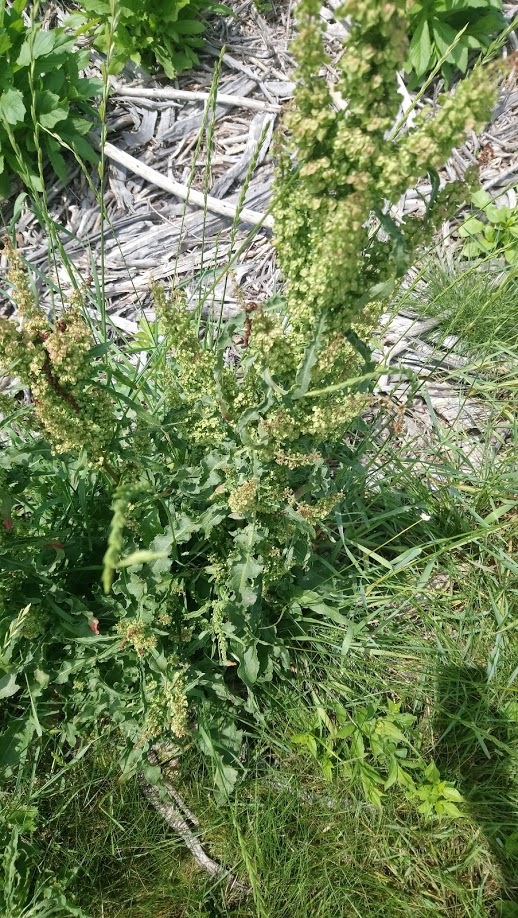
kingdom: Plantae
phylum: Tracheophyta
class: Magnoliopsida
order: Caryophyllales
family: Polygonaceae
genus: Rumex
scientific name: Rumex crispus
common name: Curled dock
